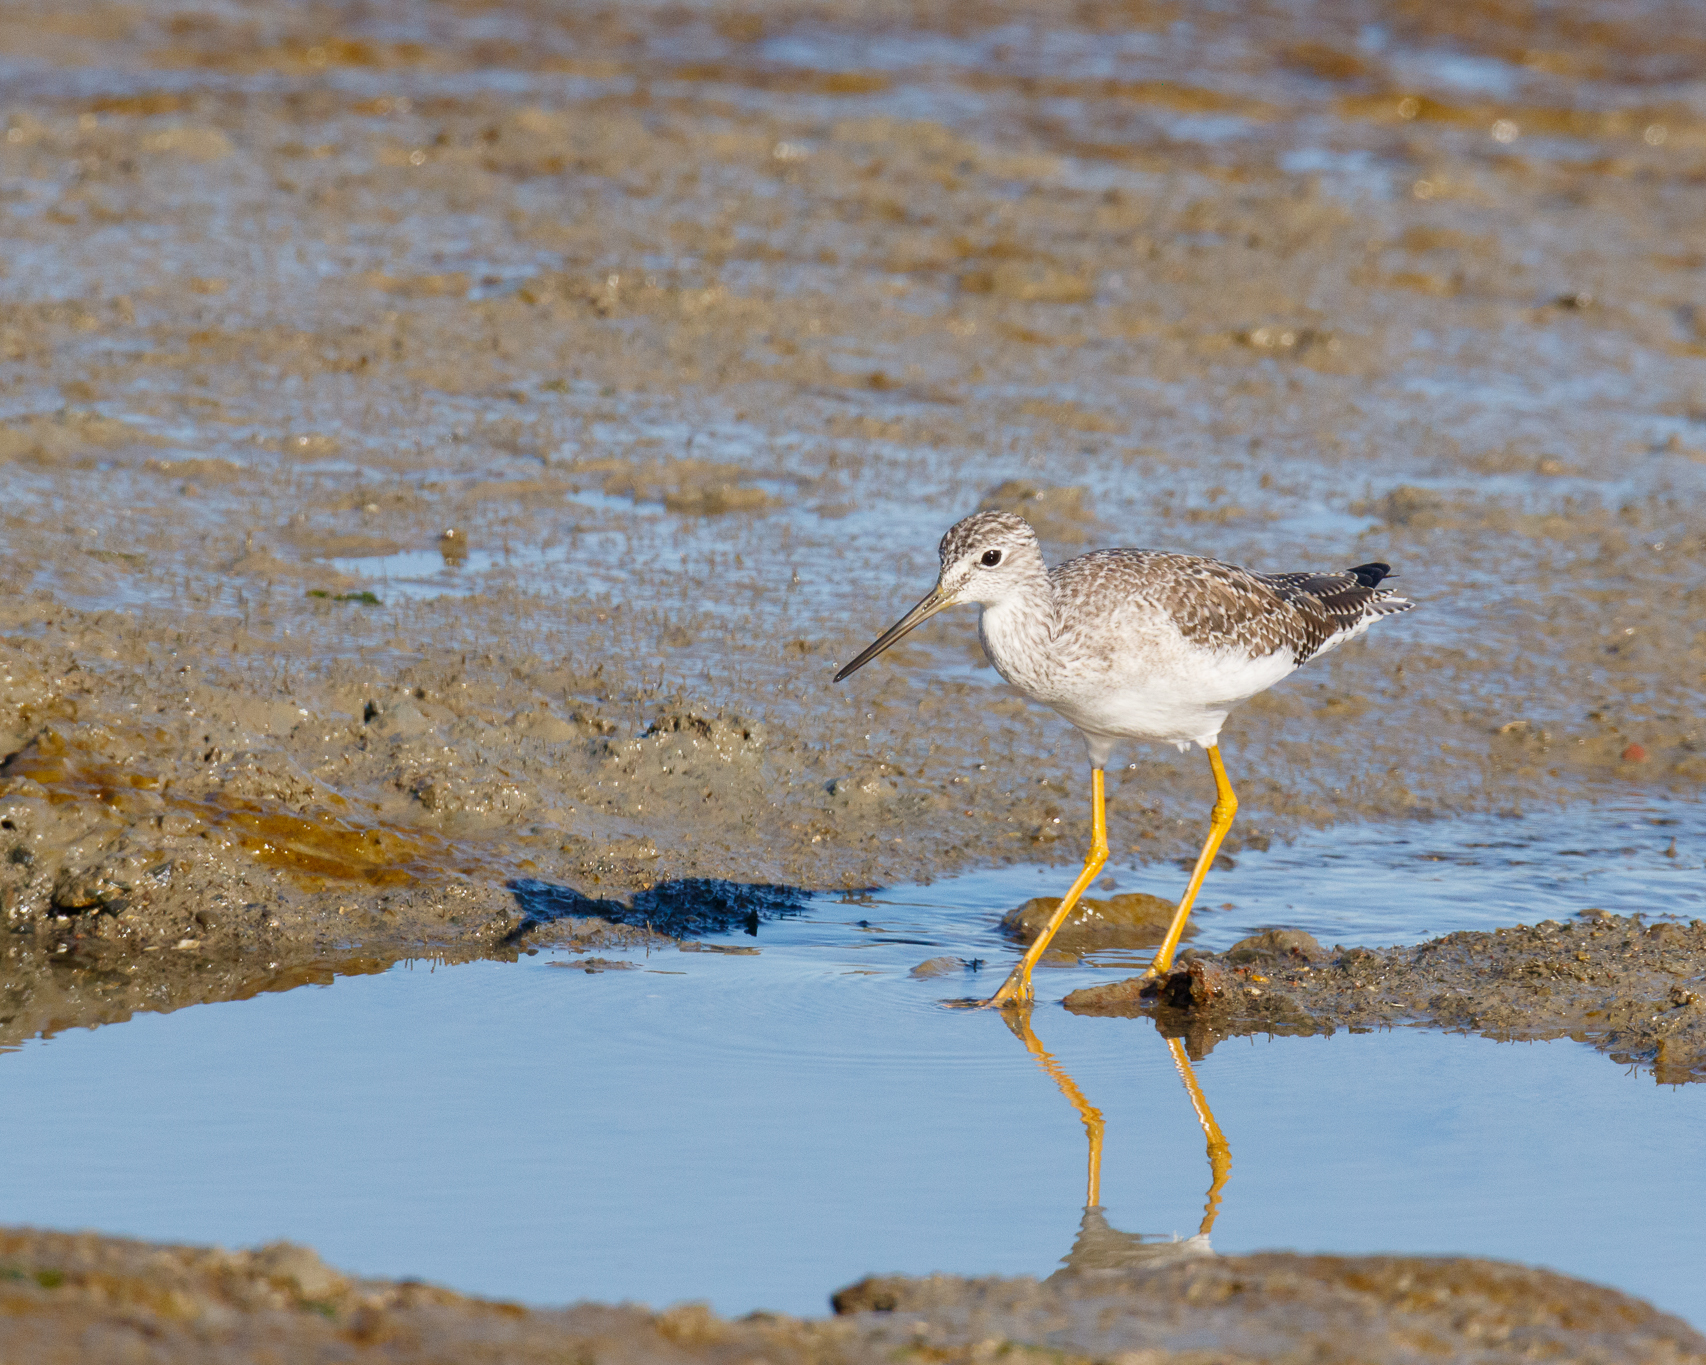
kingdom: Animalia
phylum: Chordata
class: Aves
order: Charadriiformes
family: Scolopacidae
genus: Tringa
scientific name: Tringa melanoleuca
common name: Greater yellowlegs
